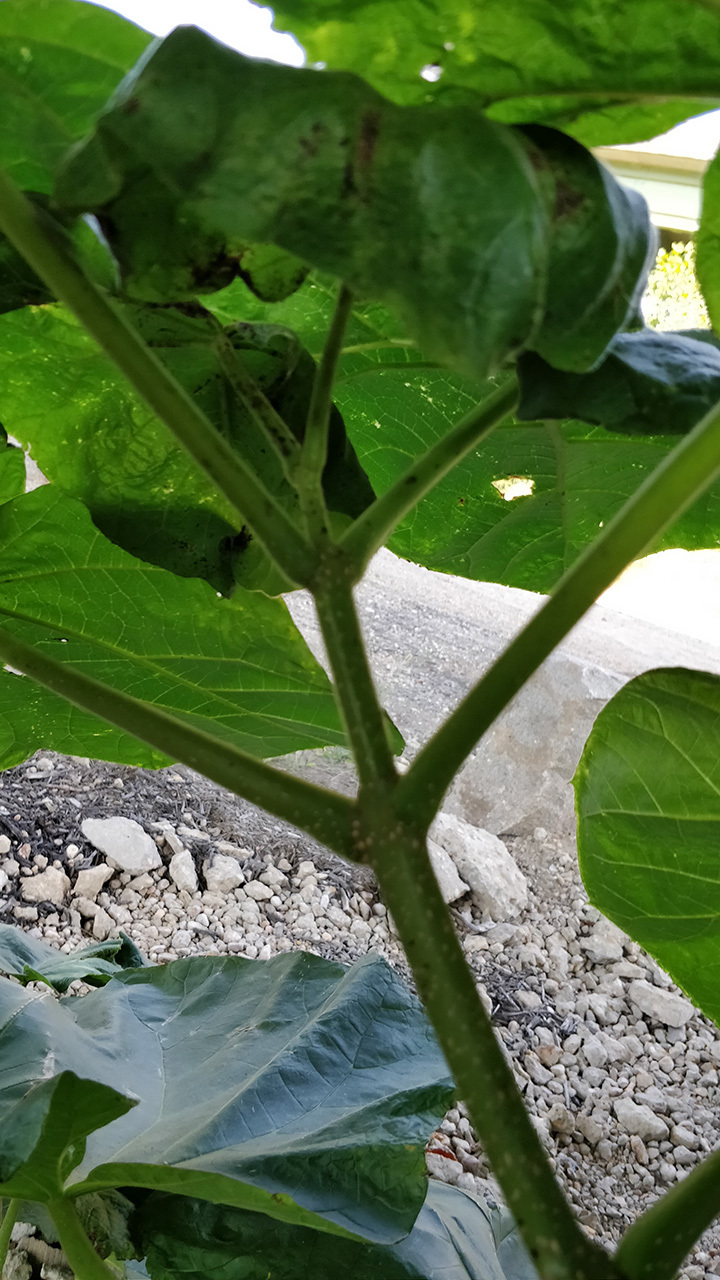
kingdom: Plantae
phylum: Tracheophyta
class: Magnoliopsida
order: Lamiales
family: Paulowniaceae
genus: Paulownia
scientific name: Paulownia tomentosa
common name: Foxglove-tree
